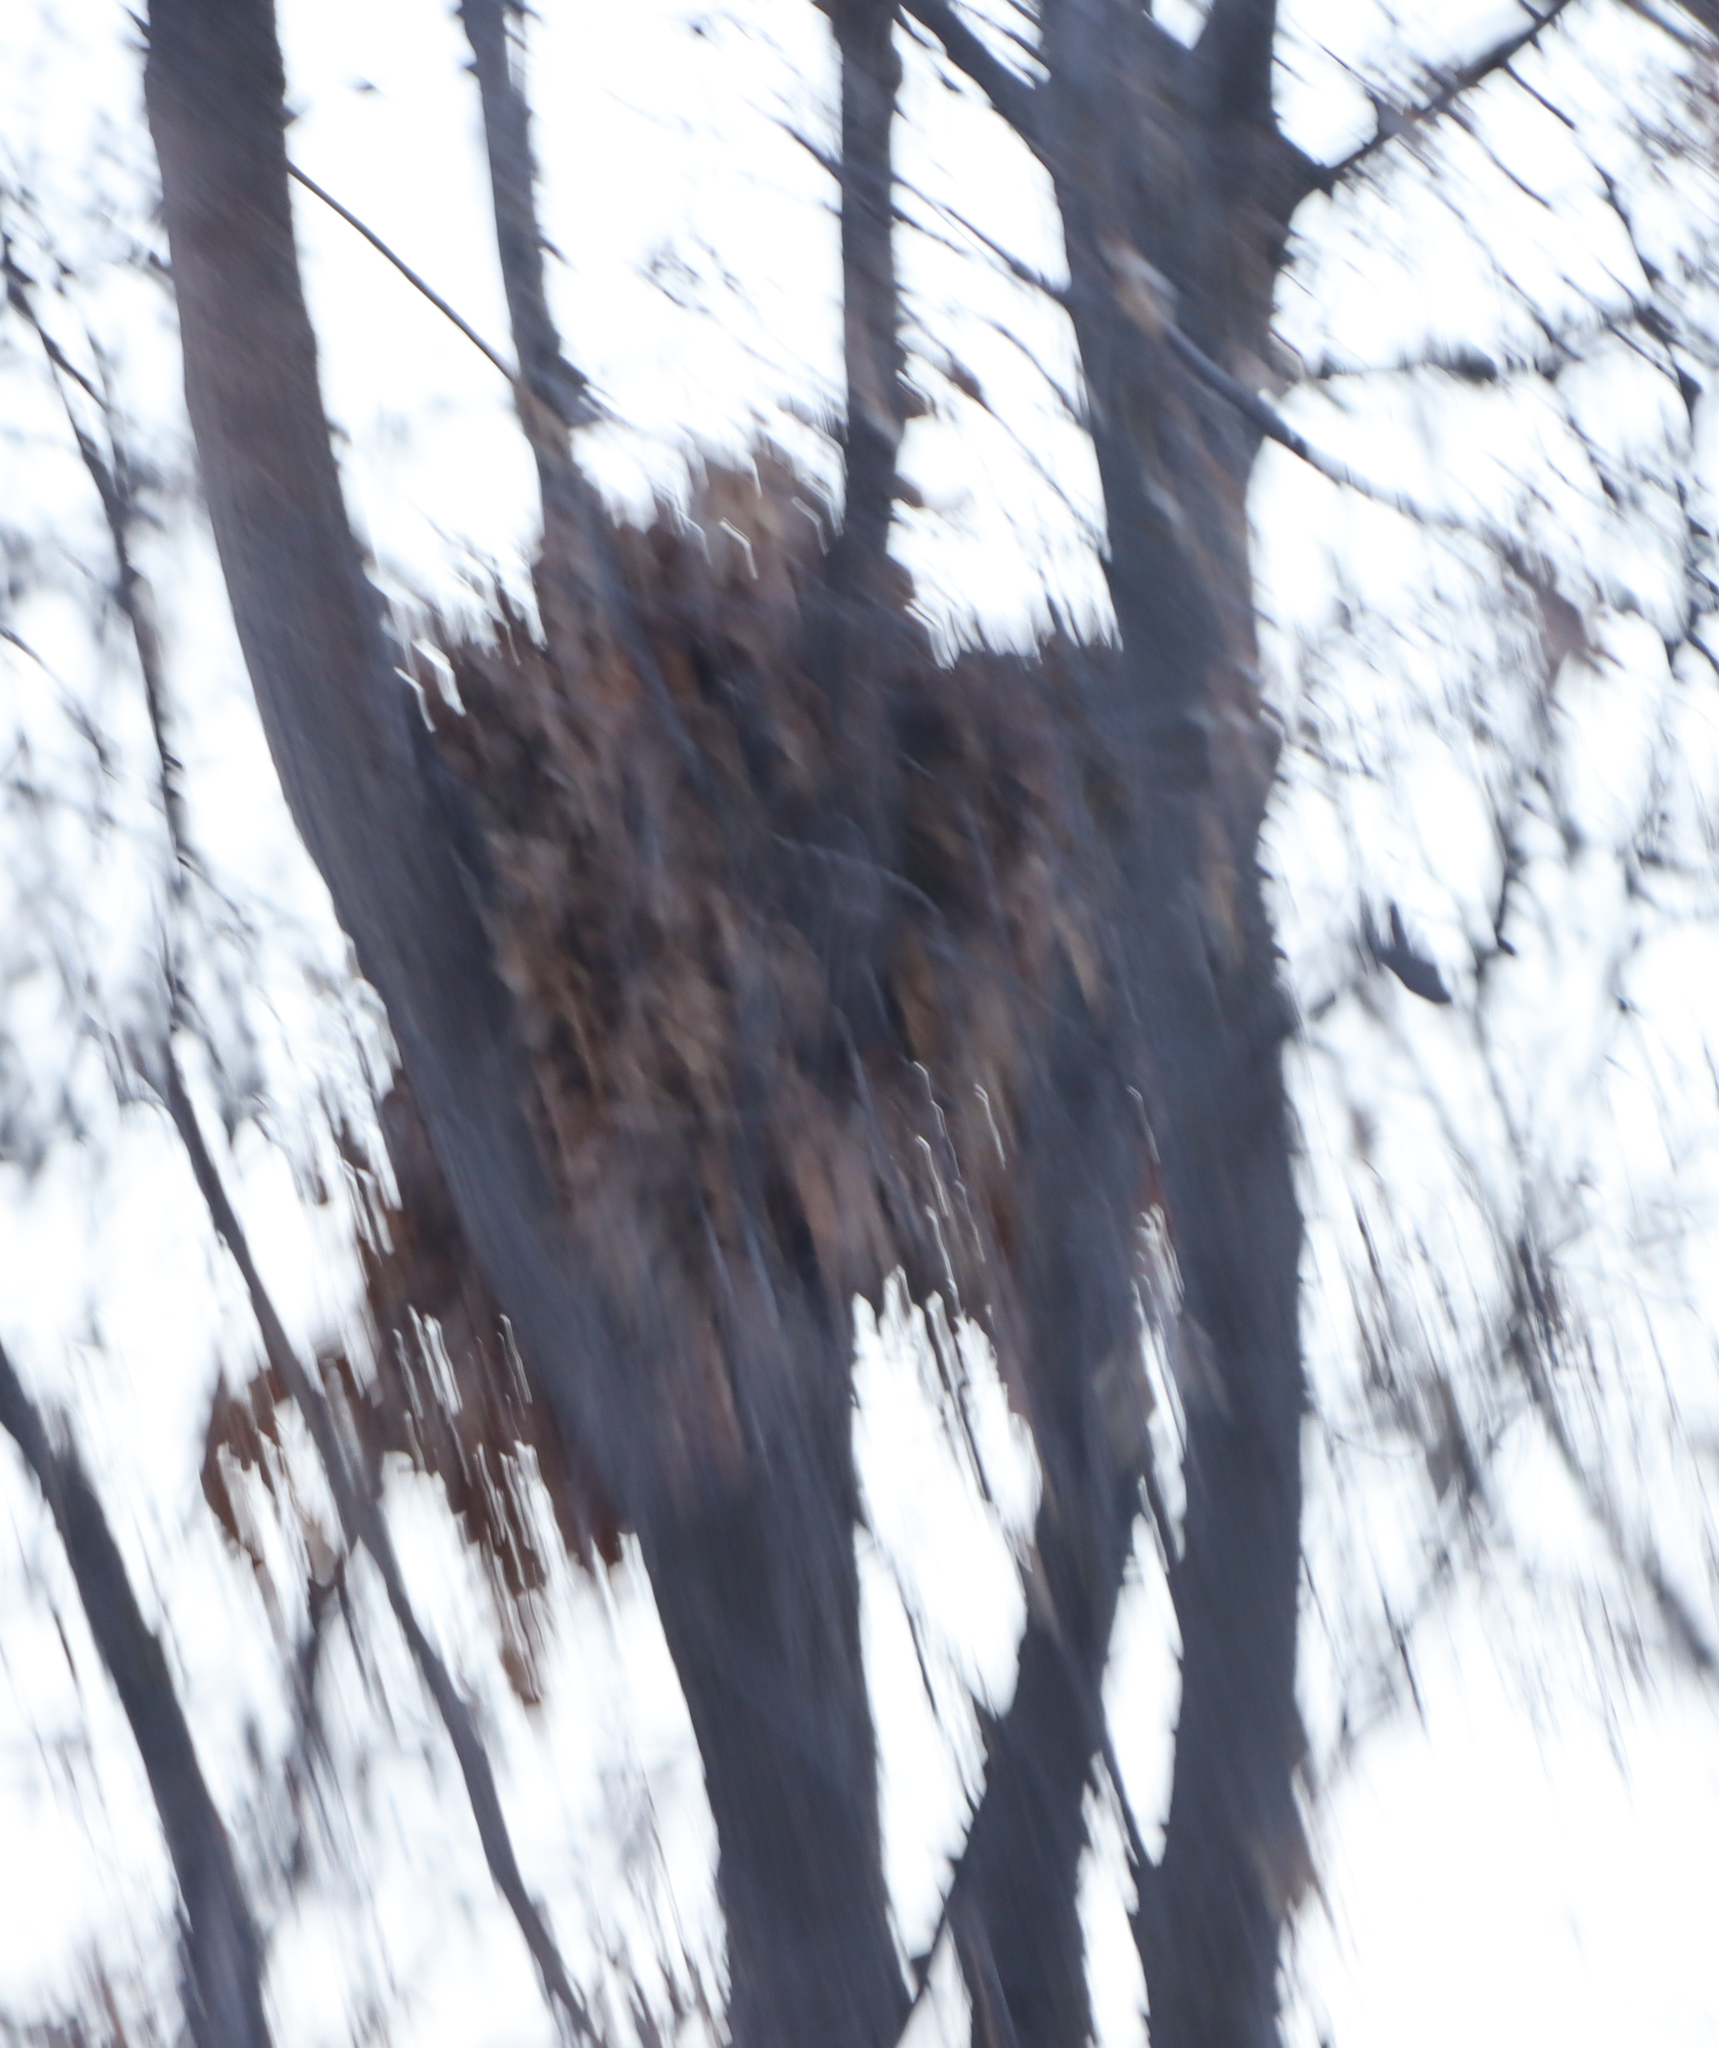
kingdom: Animalia
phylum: Chordata
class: Mammalia
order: Rodentia
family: Sciuridae
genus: Sciurus
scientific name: Sciurus carolinensis
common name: Eastern gray squirrel
